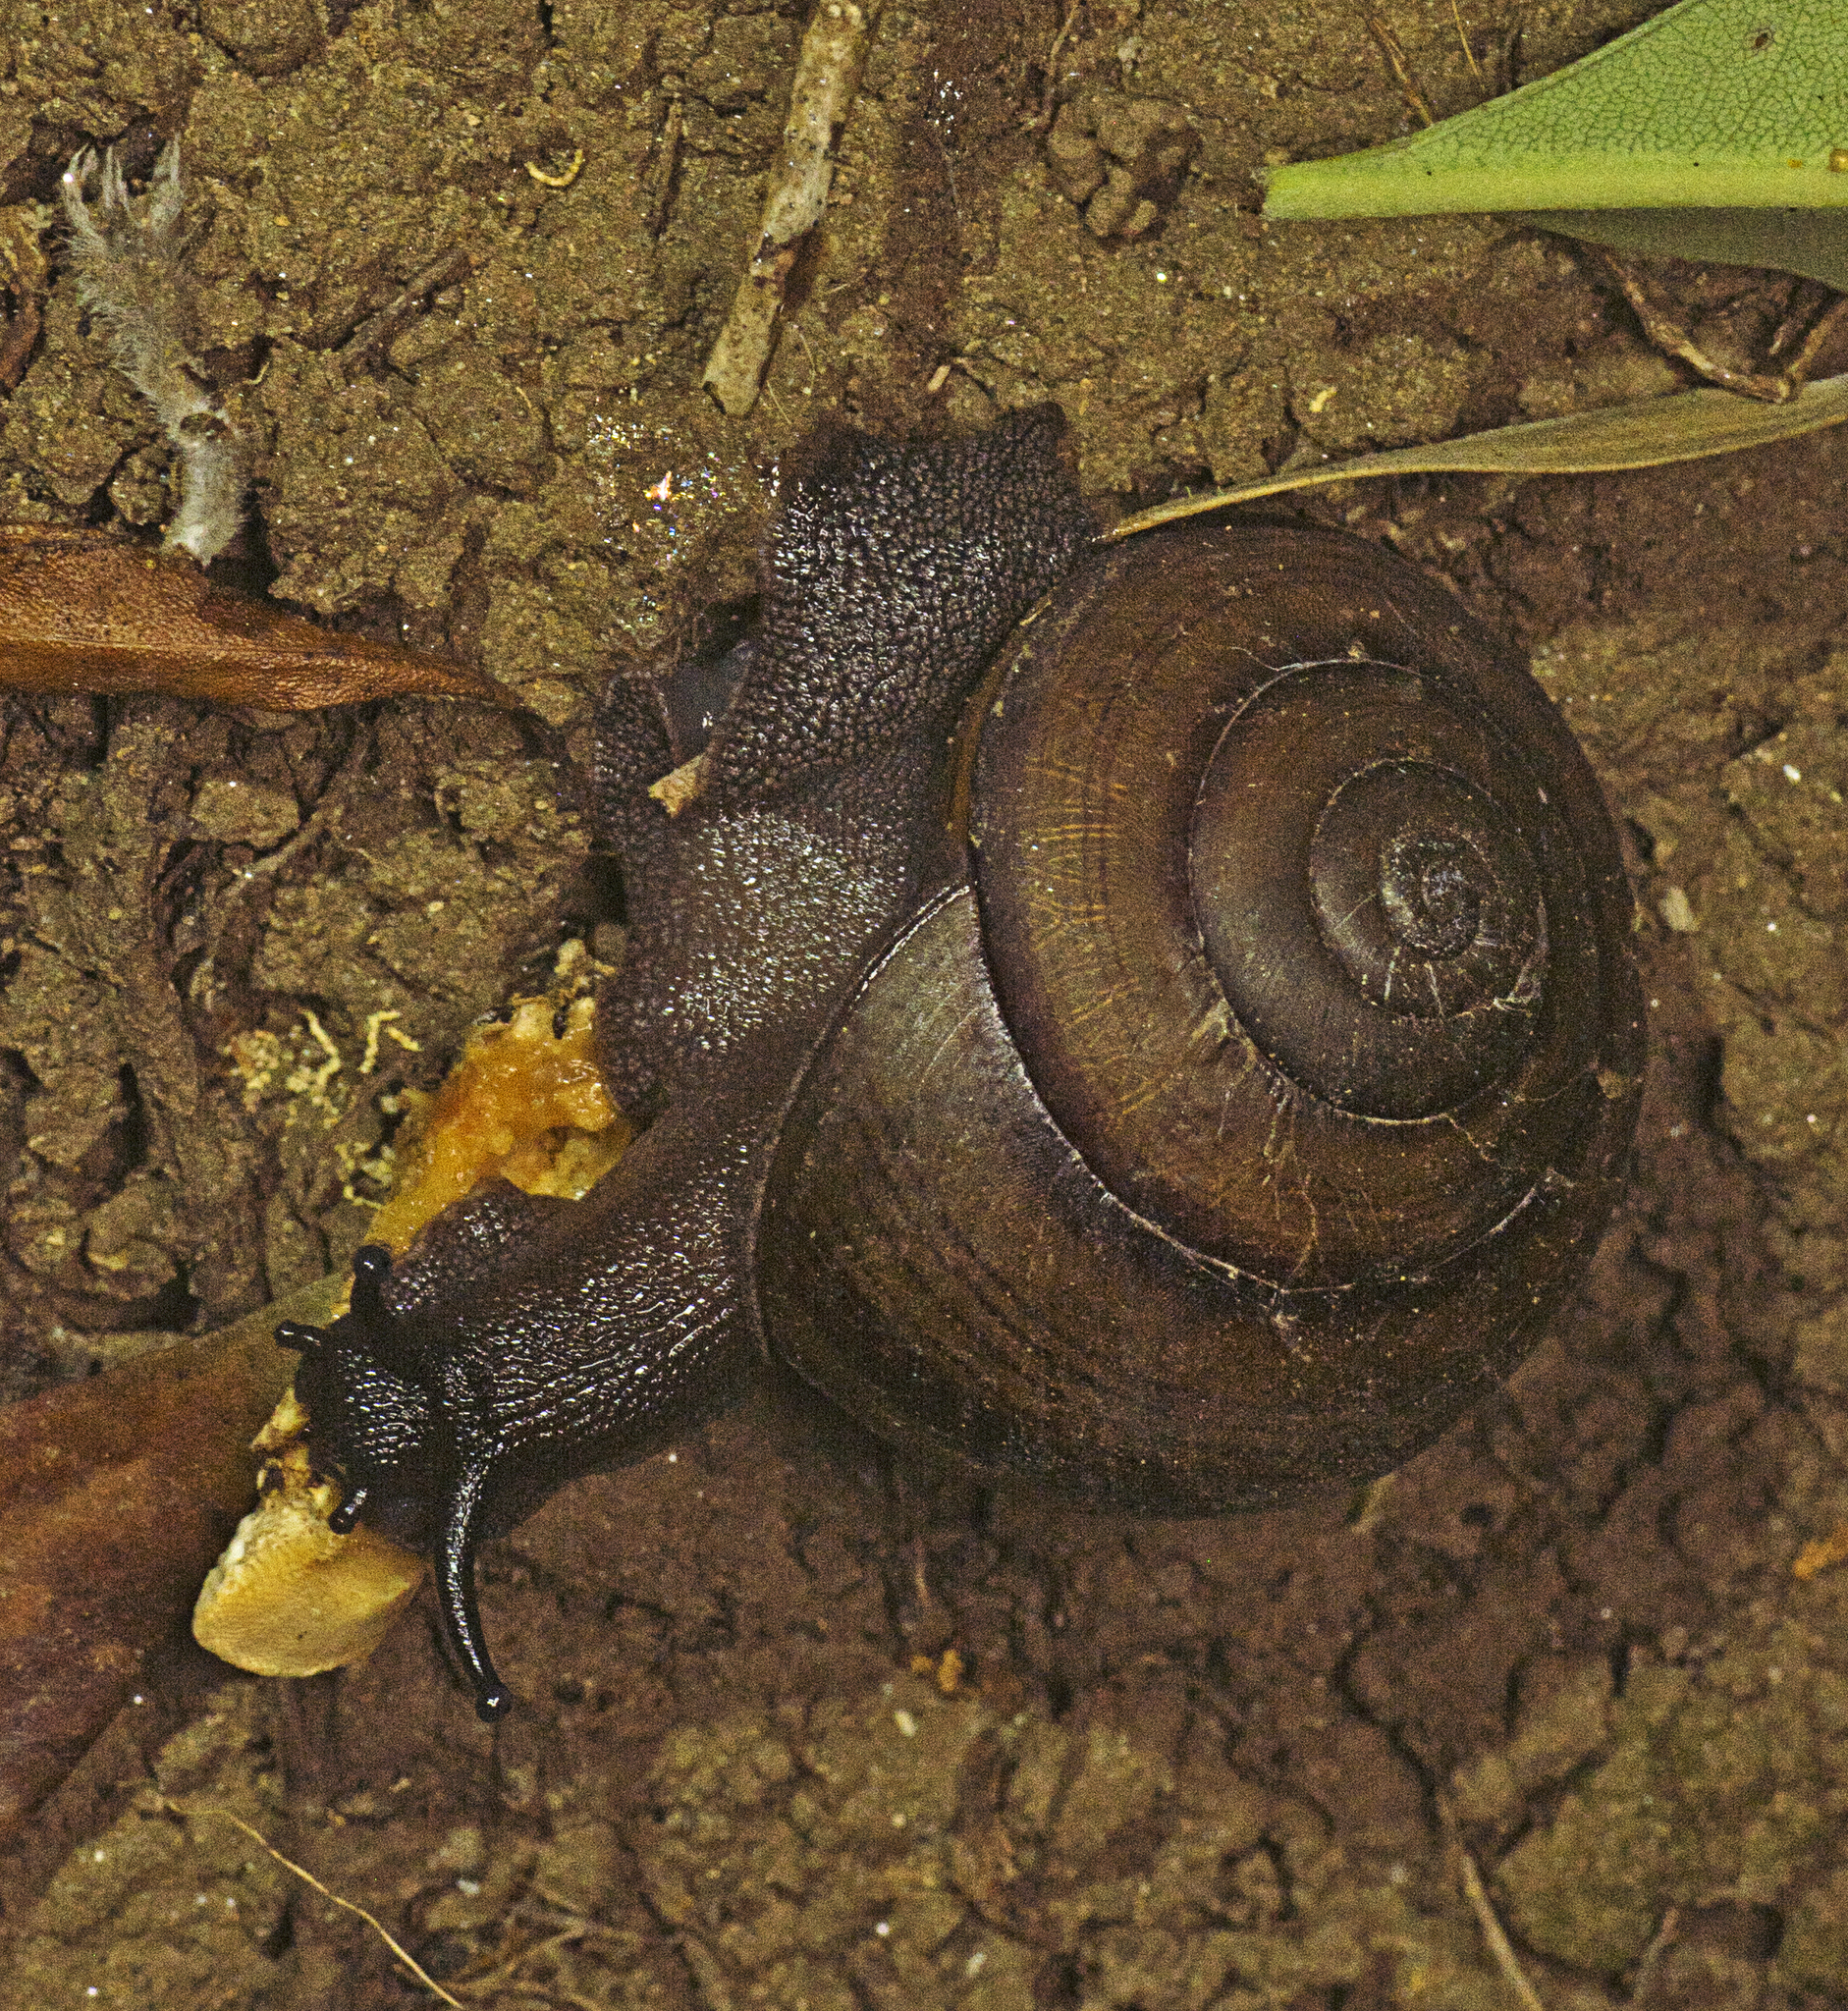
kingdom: Animalia
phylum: Mollusca
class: Gastropoda
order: Stylommatophora
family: Camaenidae
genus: Sphaerospira
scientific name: Sphaerospira fraseri
